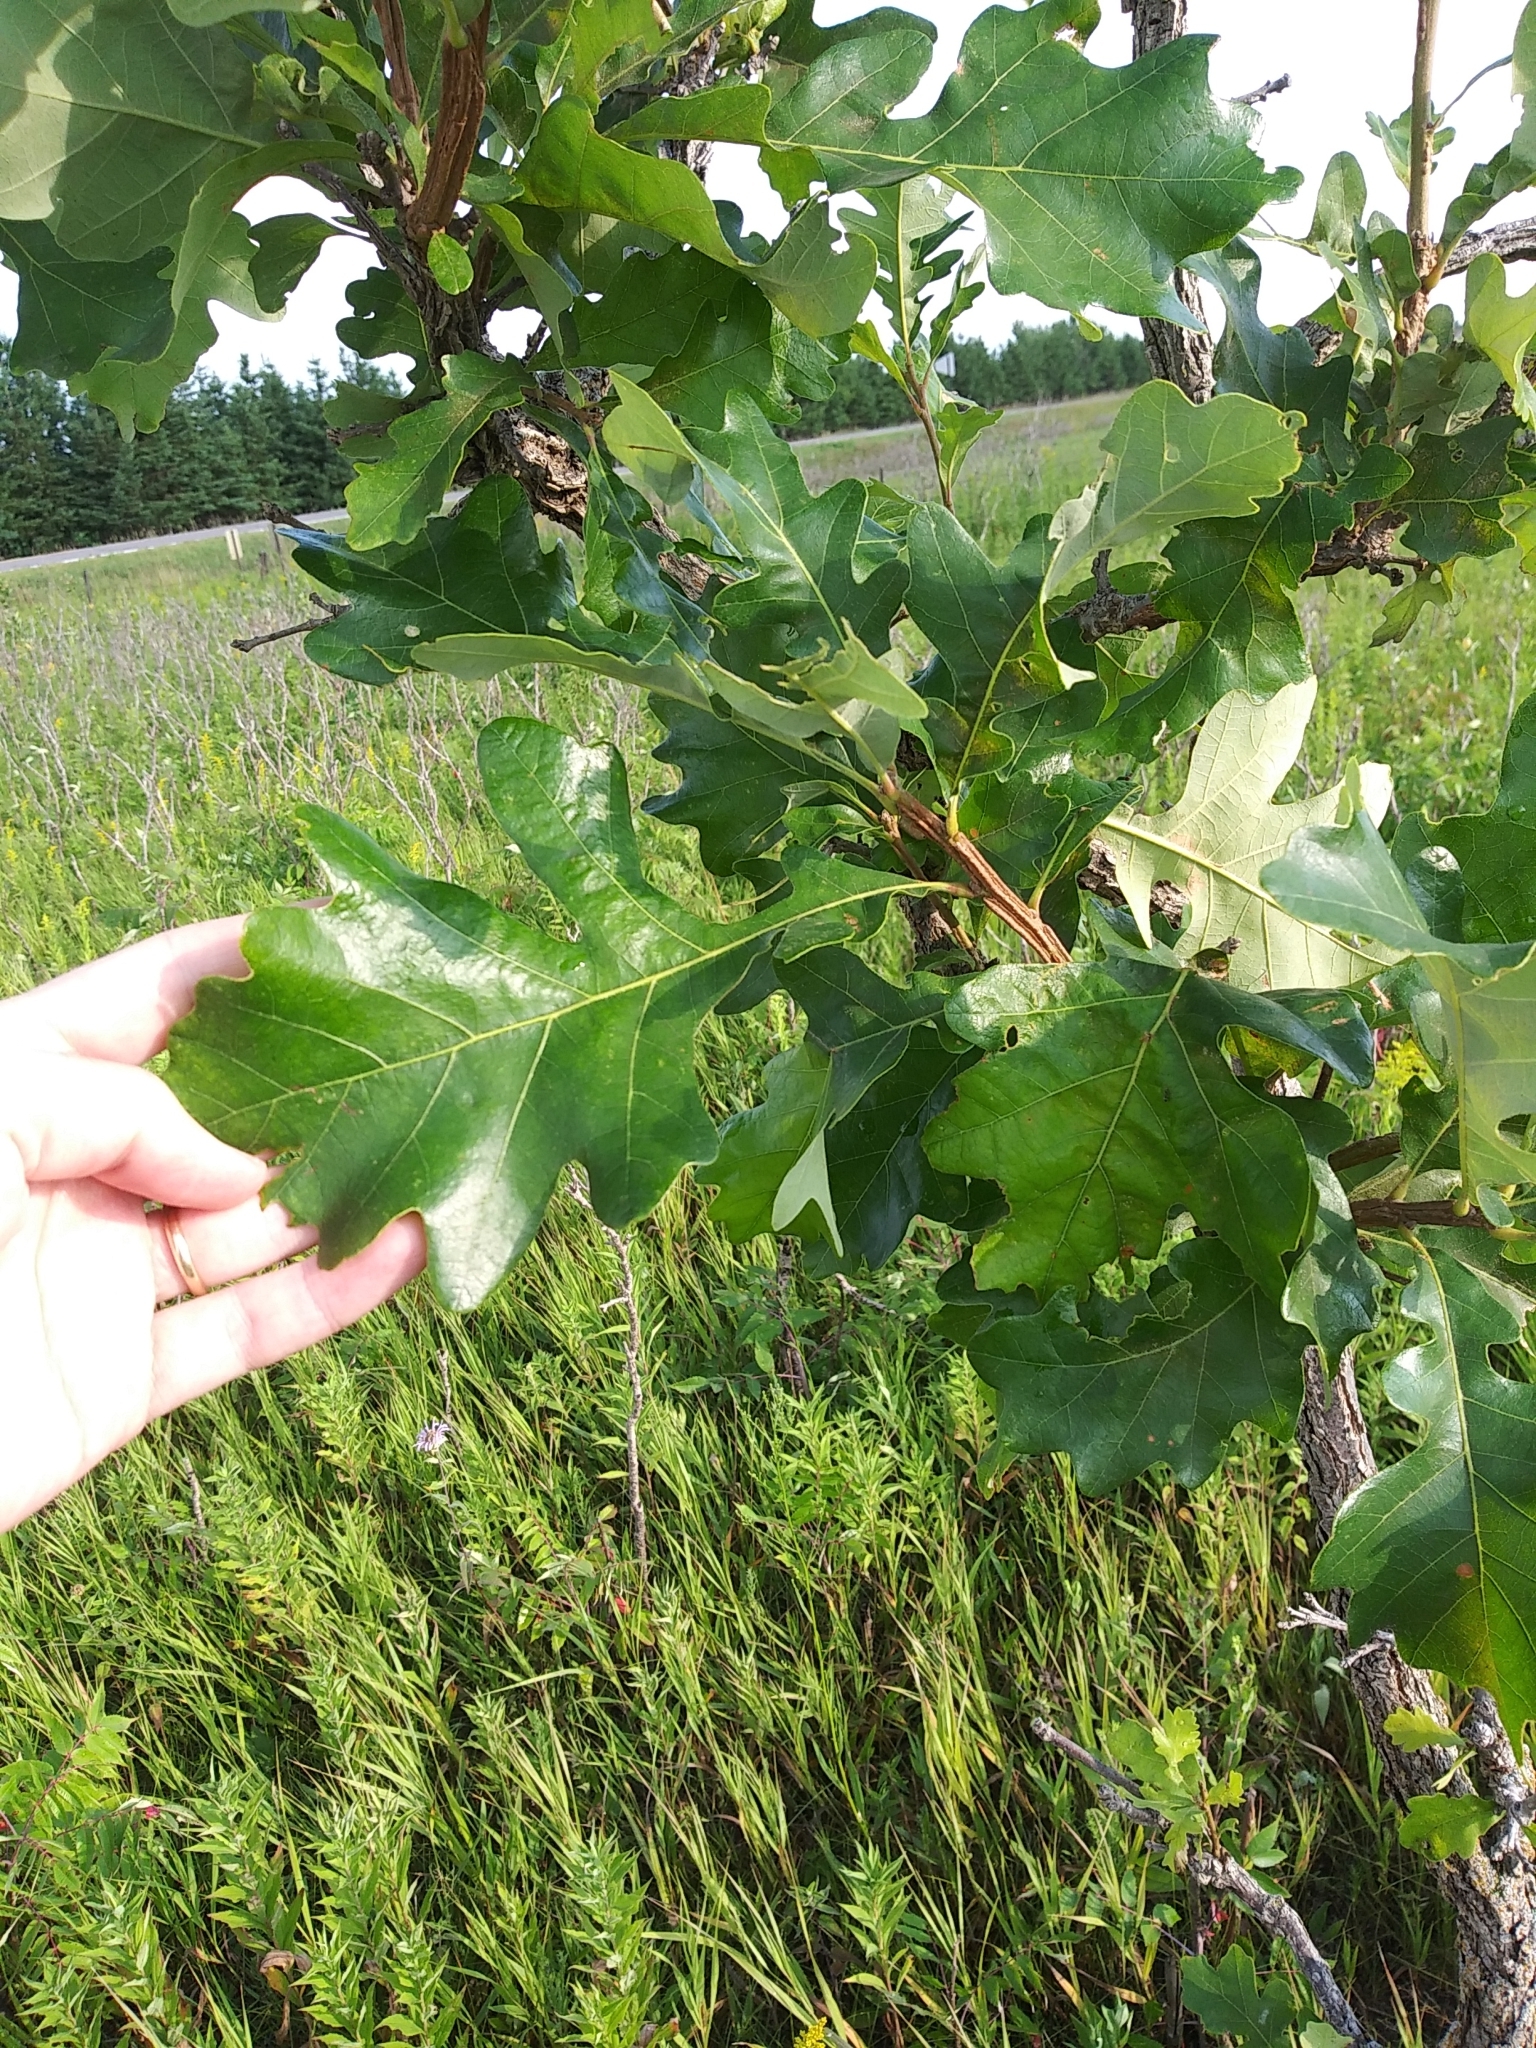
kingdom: Plantae
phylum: Tracheophyta
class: Magnoliopsida
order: Fagales
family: Fagaceae
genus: Quercus
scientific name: Quercus macrocarpa
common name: Bur oak
